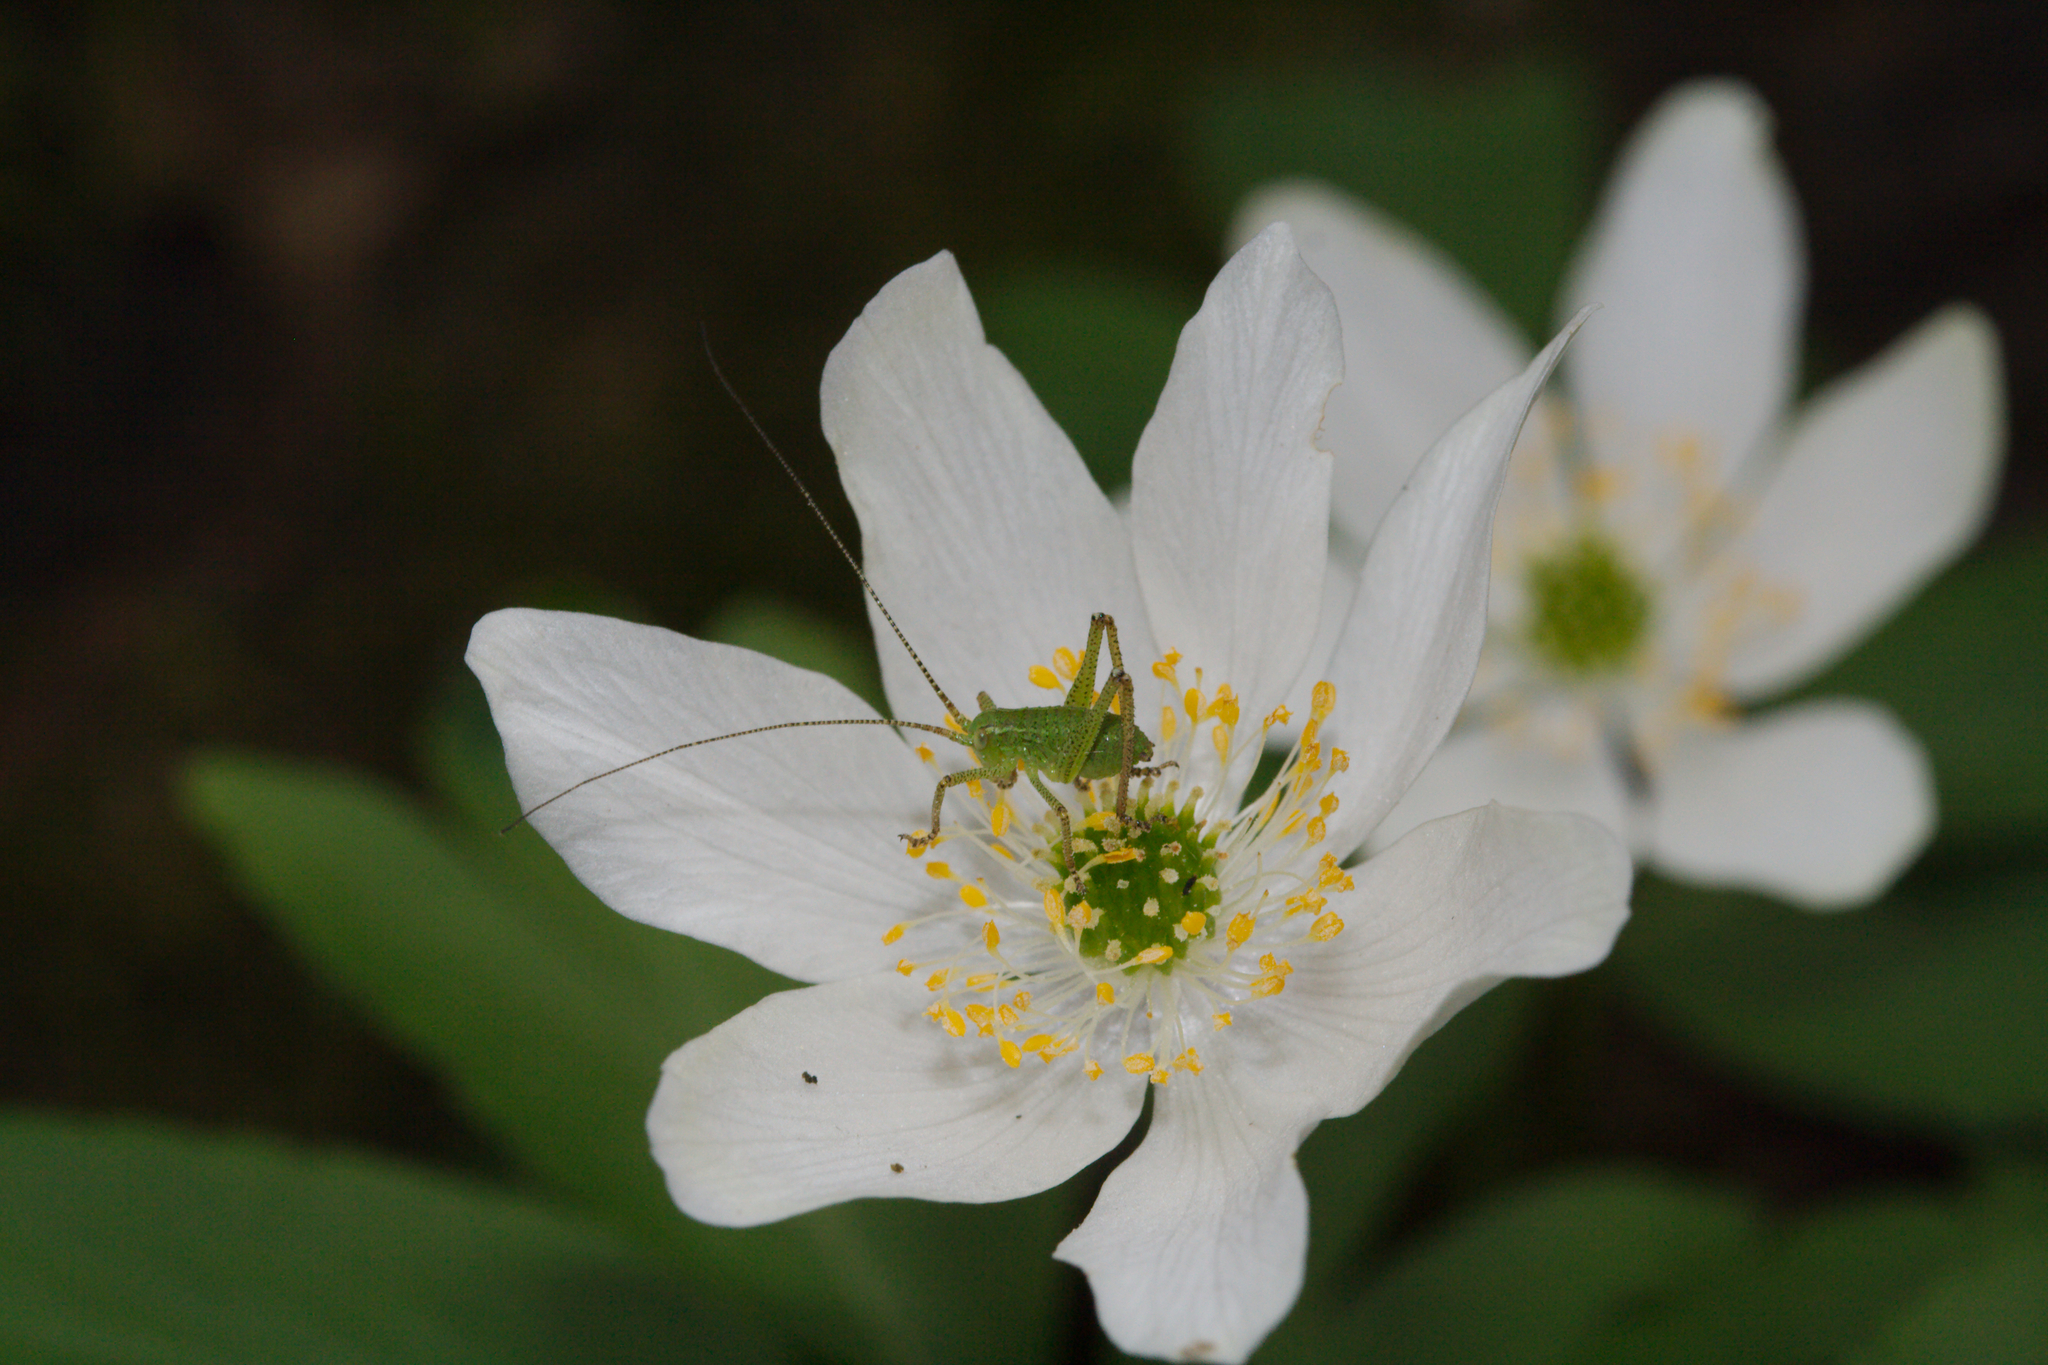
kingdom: Animalia
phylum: Arthropoda
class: Insecta
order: Orthoptera
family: Tettigoniidae
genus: Leptophyes
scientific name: Leptophyes punctatissima
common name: Speckled bush-cricket
